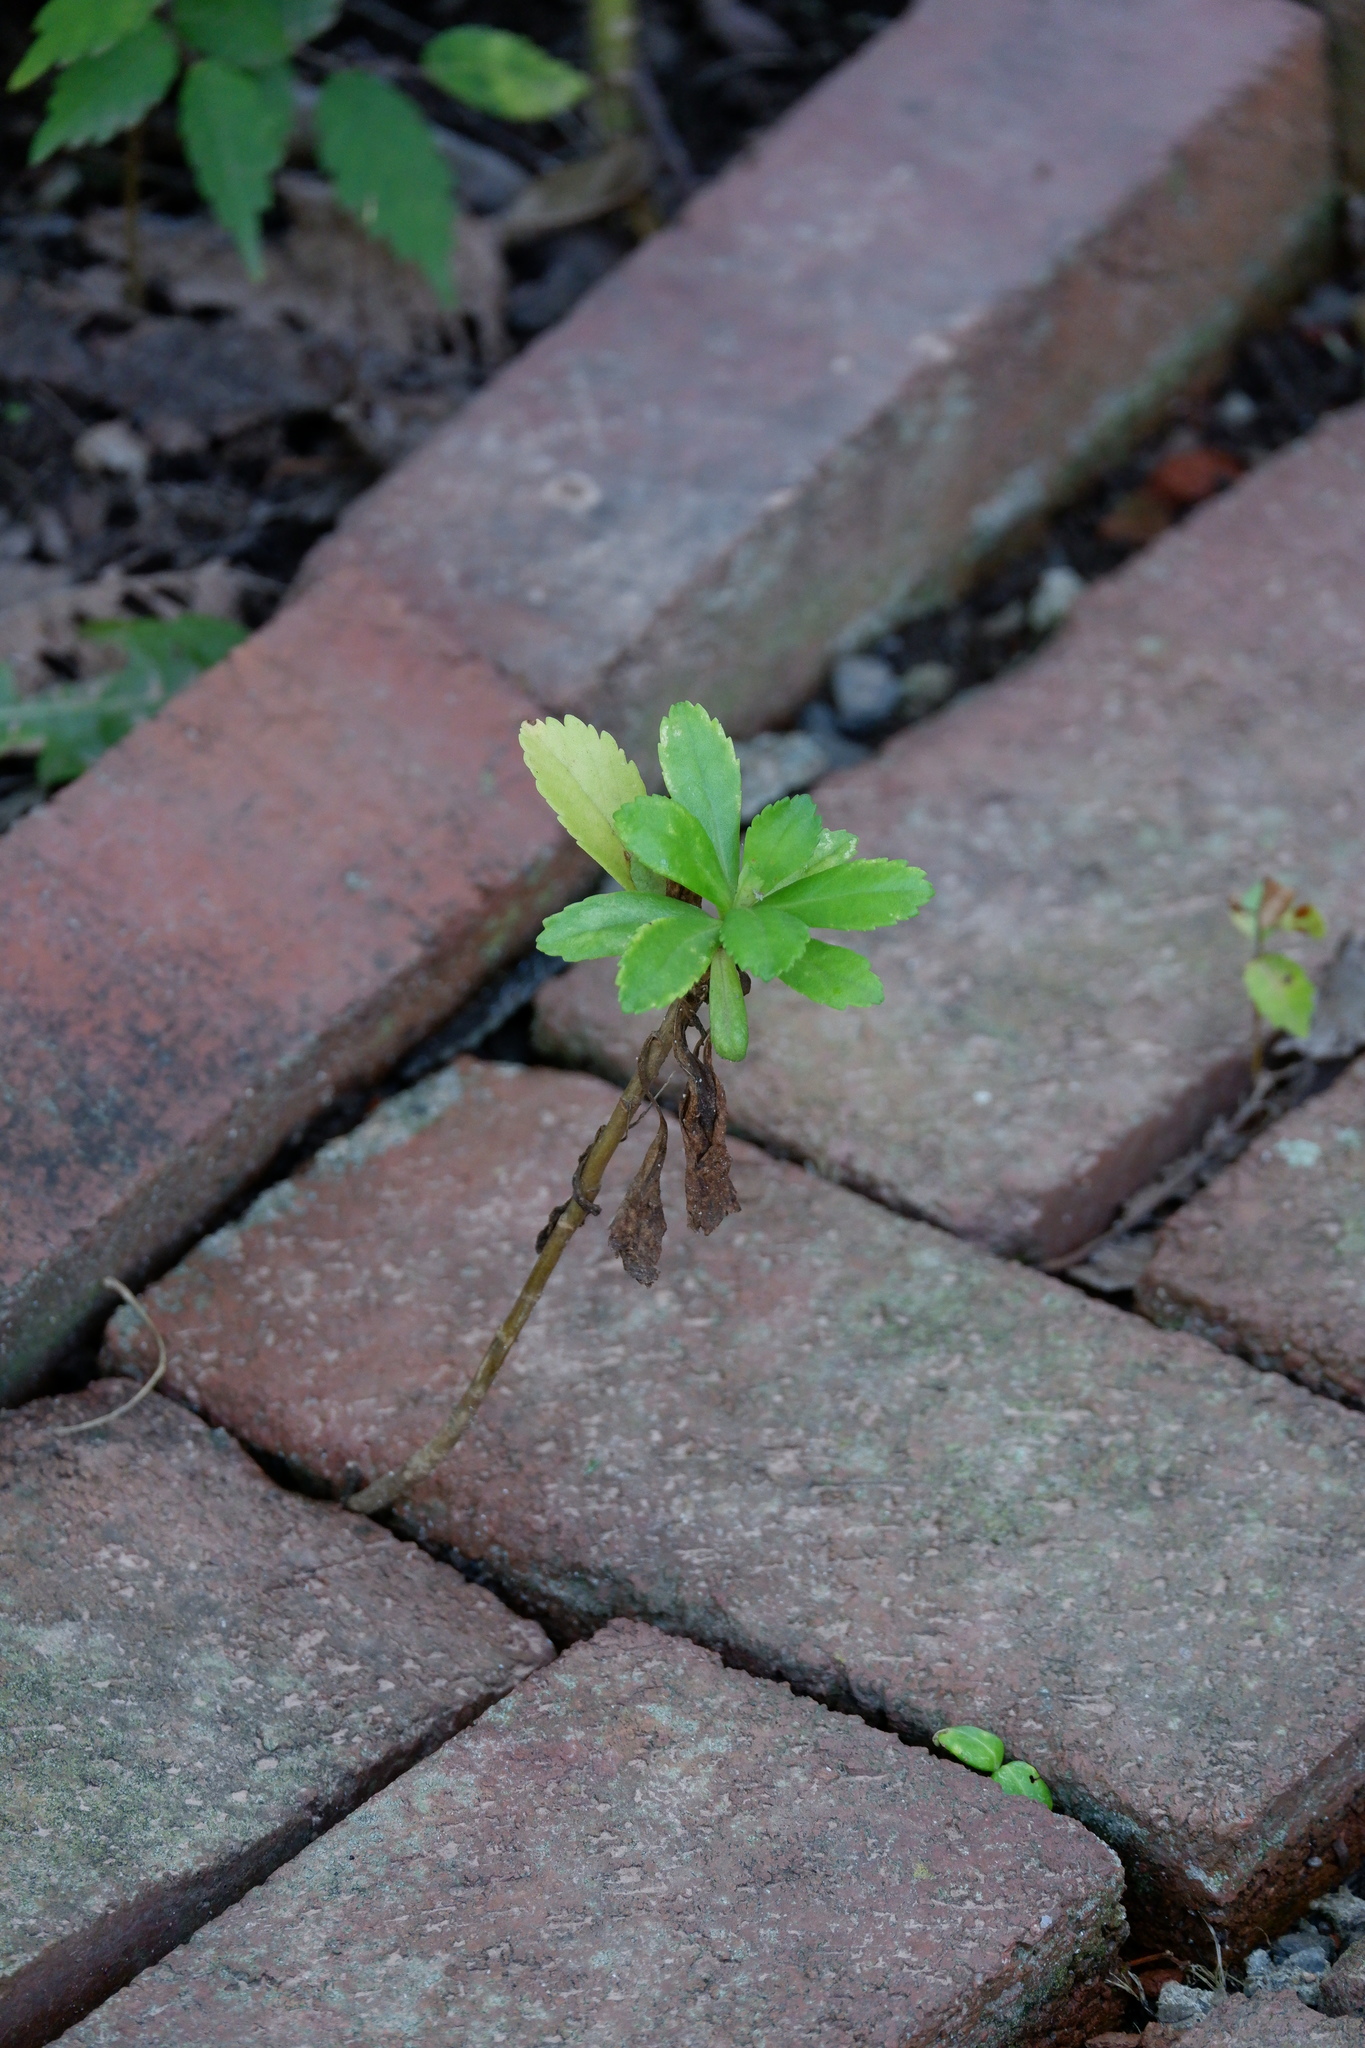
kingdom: Plantae
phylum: Tracheophyta
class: Magnoliopsida
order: Asterales
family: Asteraceae
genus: Nipponanthemum
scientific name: Nipponanthemum nipponicum
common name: Nippon daisy
